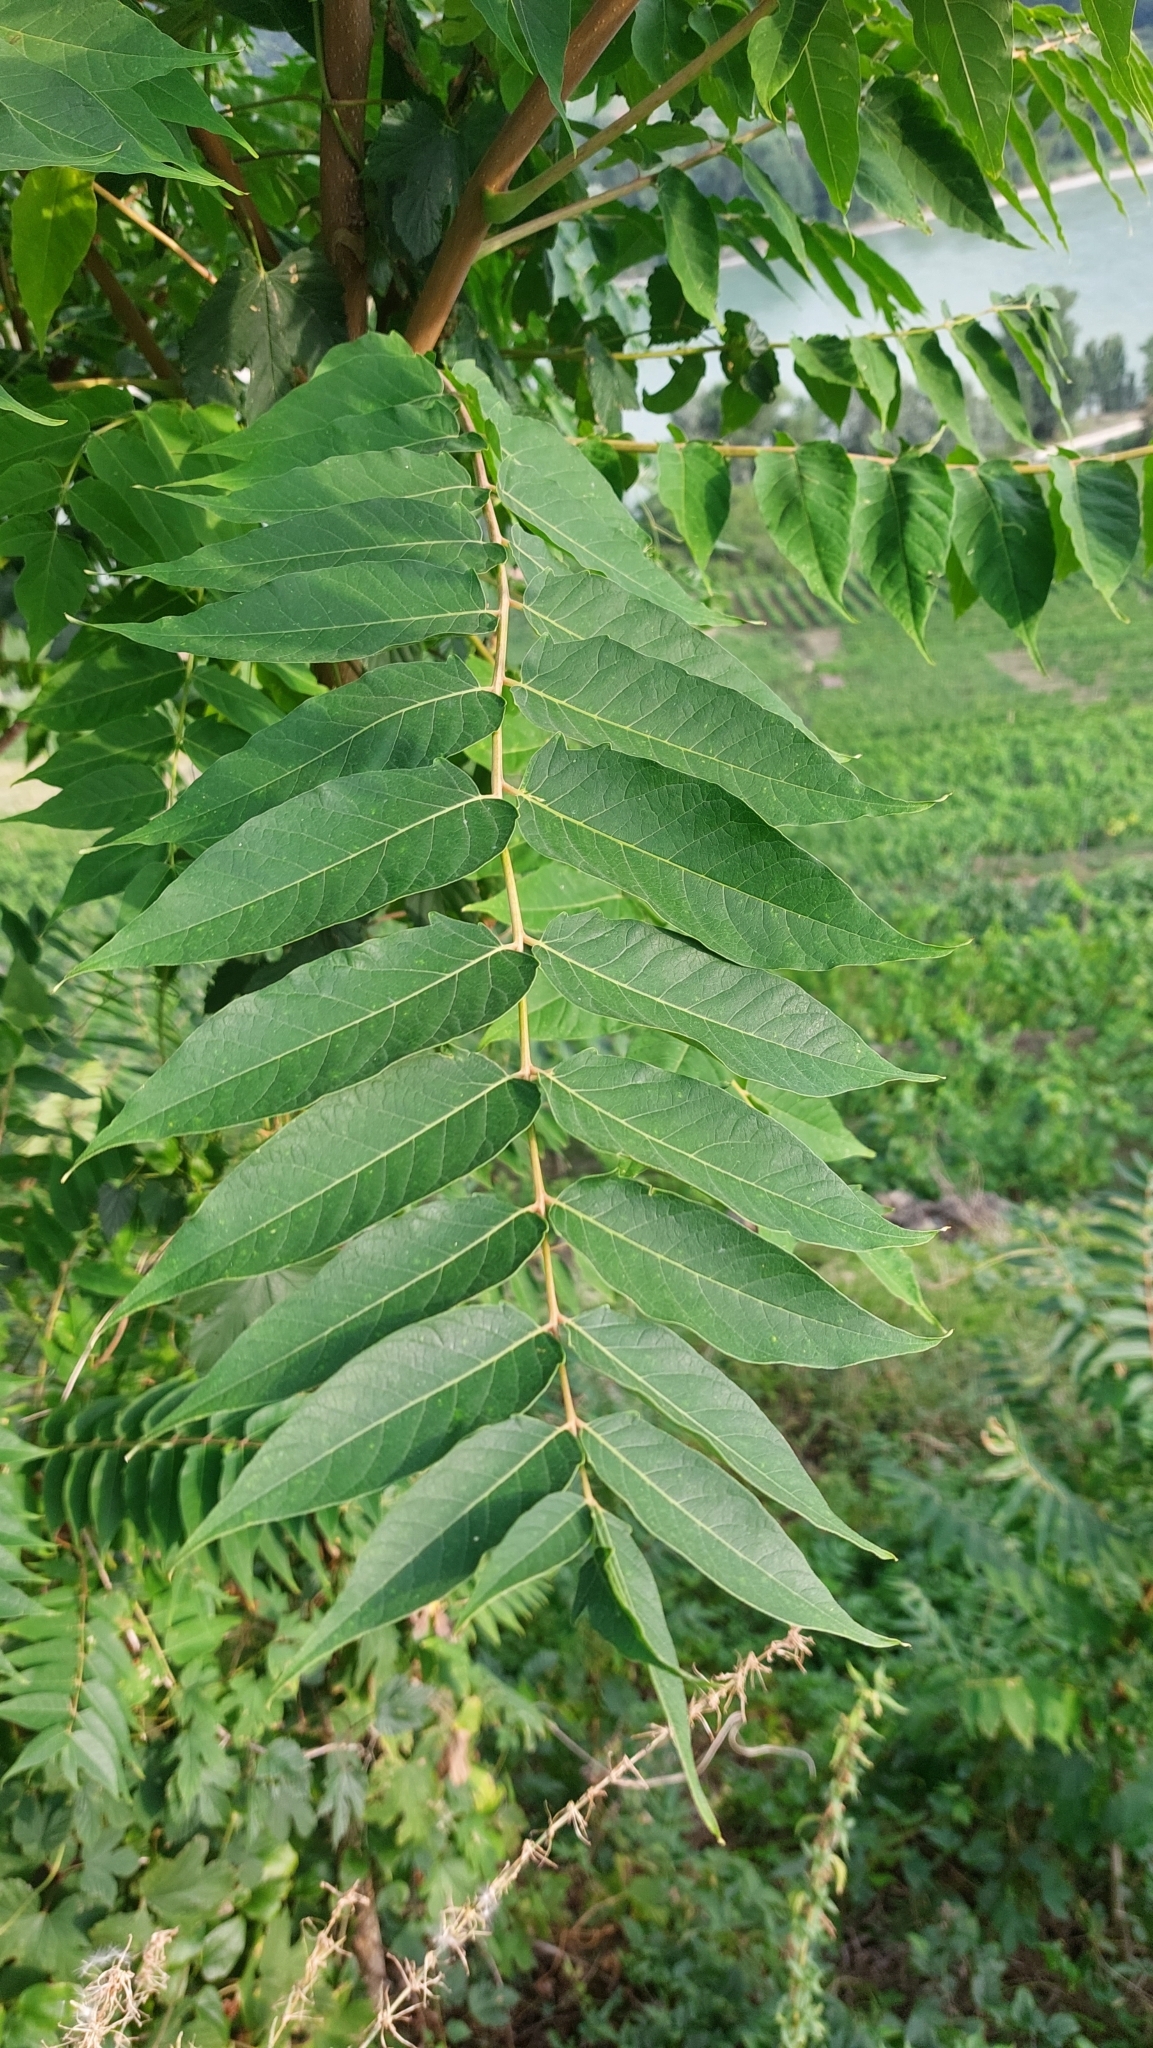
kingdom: Plantae
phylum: Tracheophyta
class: Magnoliopsida
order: Sapindales
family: Simaroubaceae
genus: Ailanthus
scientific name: Ailanthus altissima
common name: Tree-of-heaven
